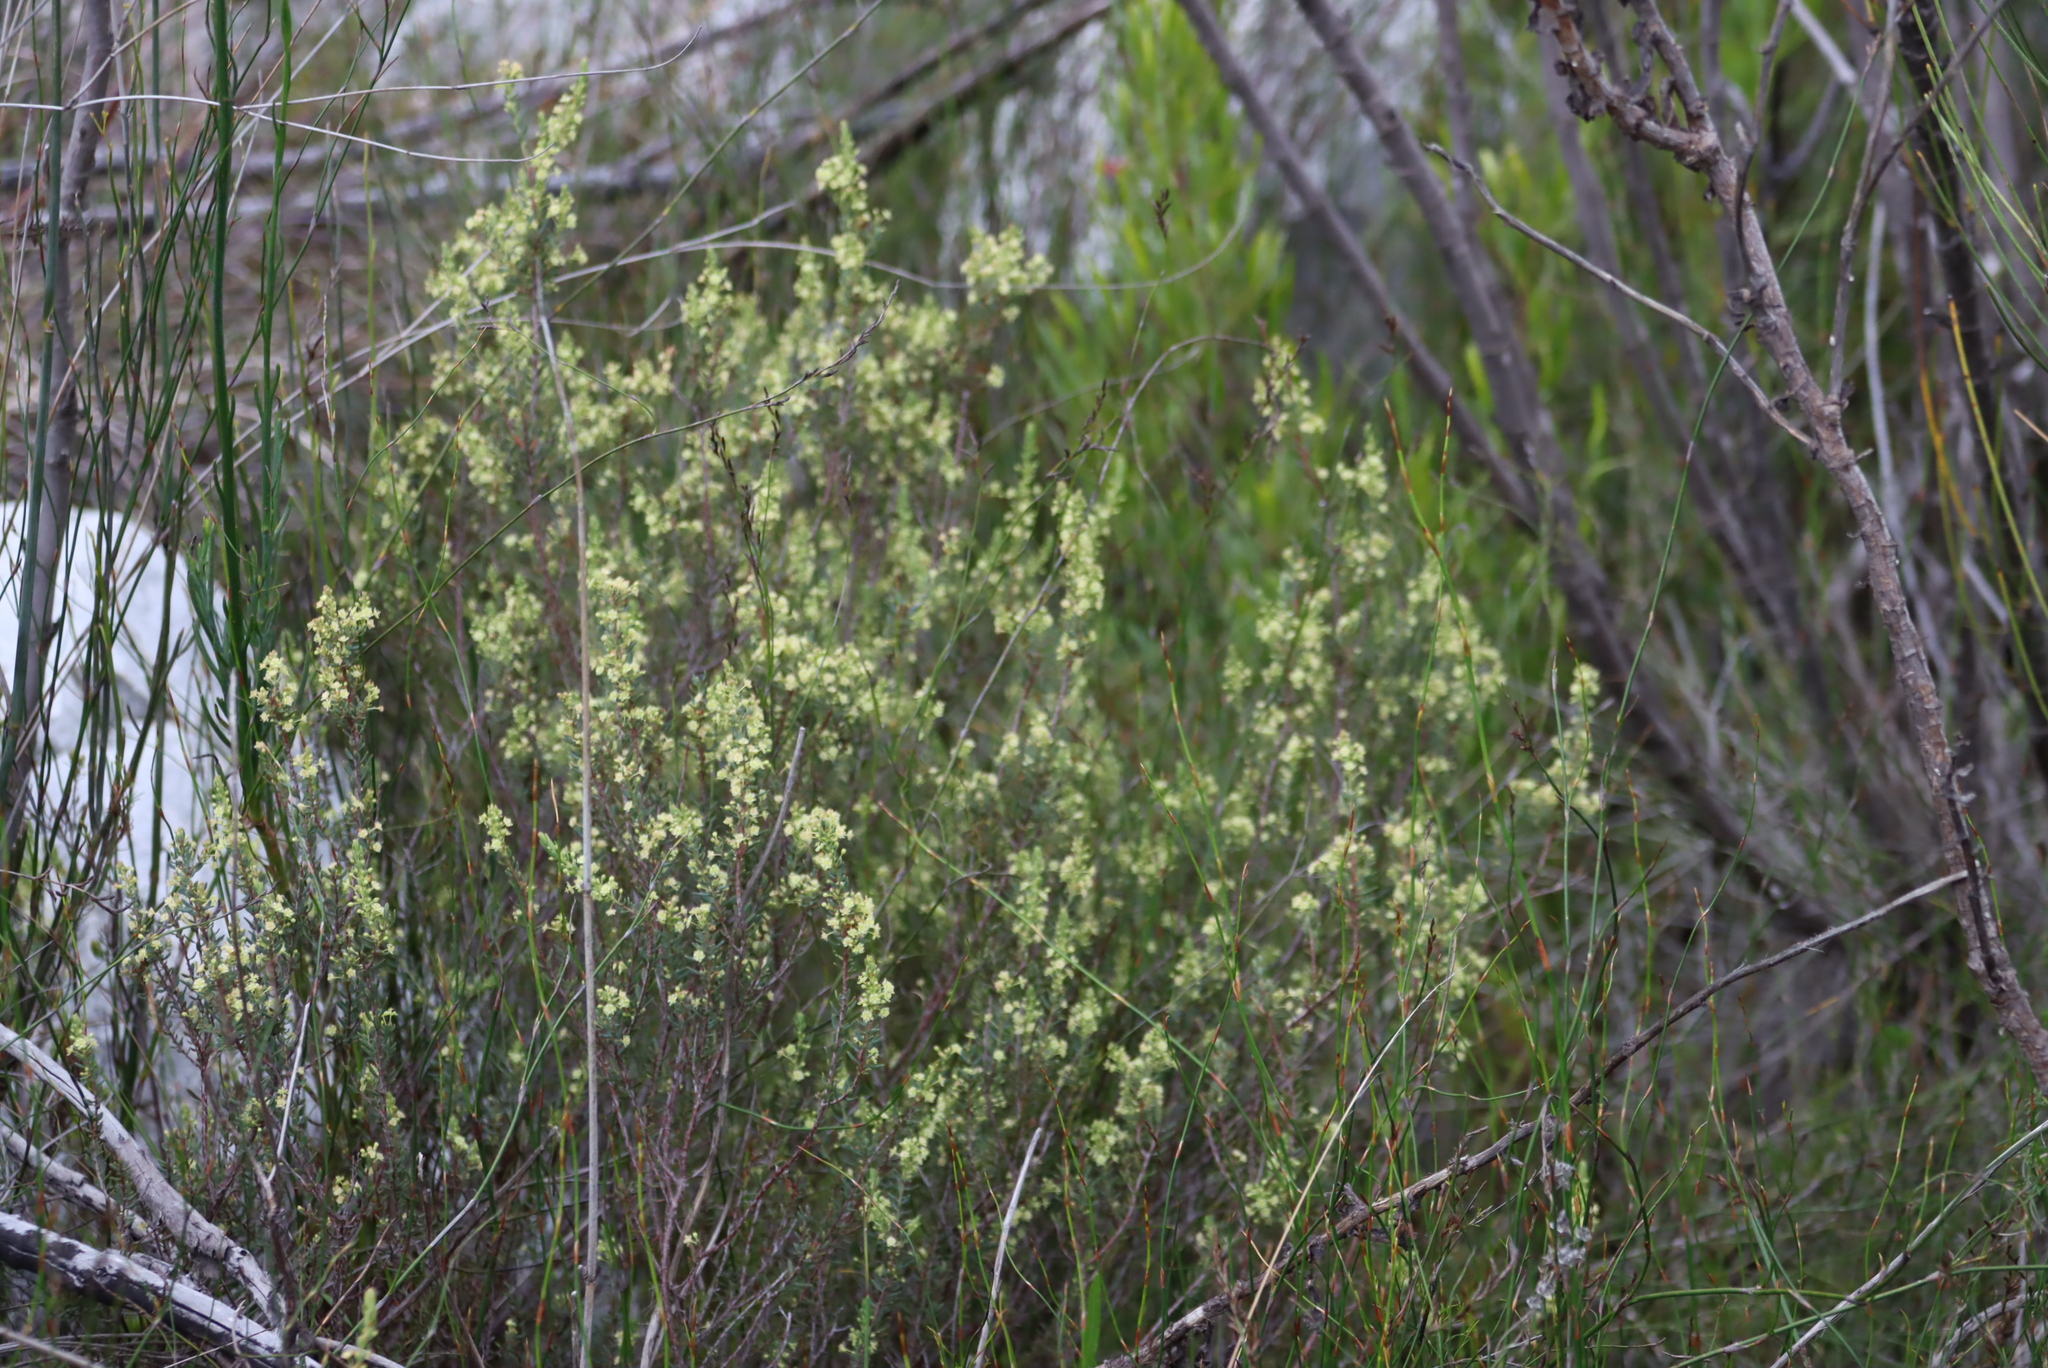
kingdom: Plantae
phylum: Tracheophyta
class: Magnoliopsida
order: Malpighiales
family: Peraceae
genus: Clutia
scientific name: Clutia laxa
